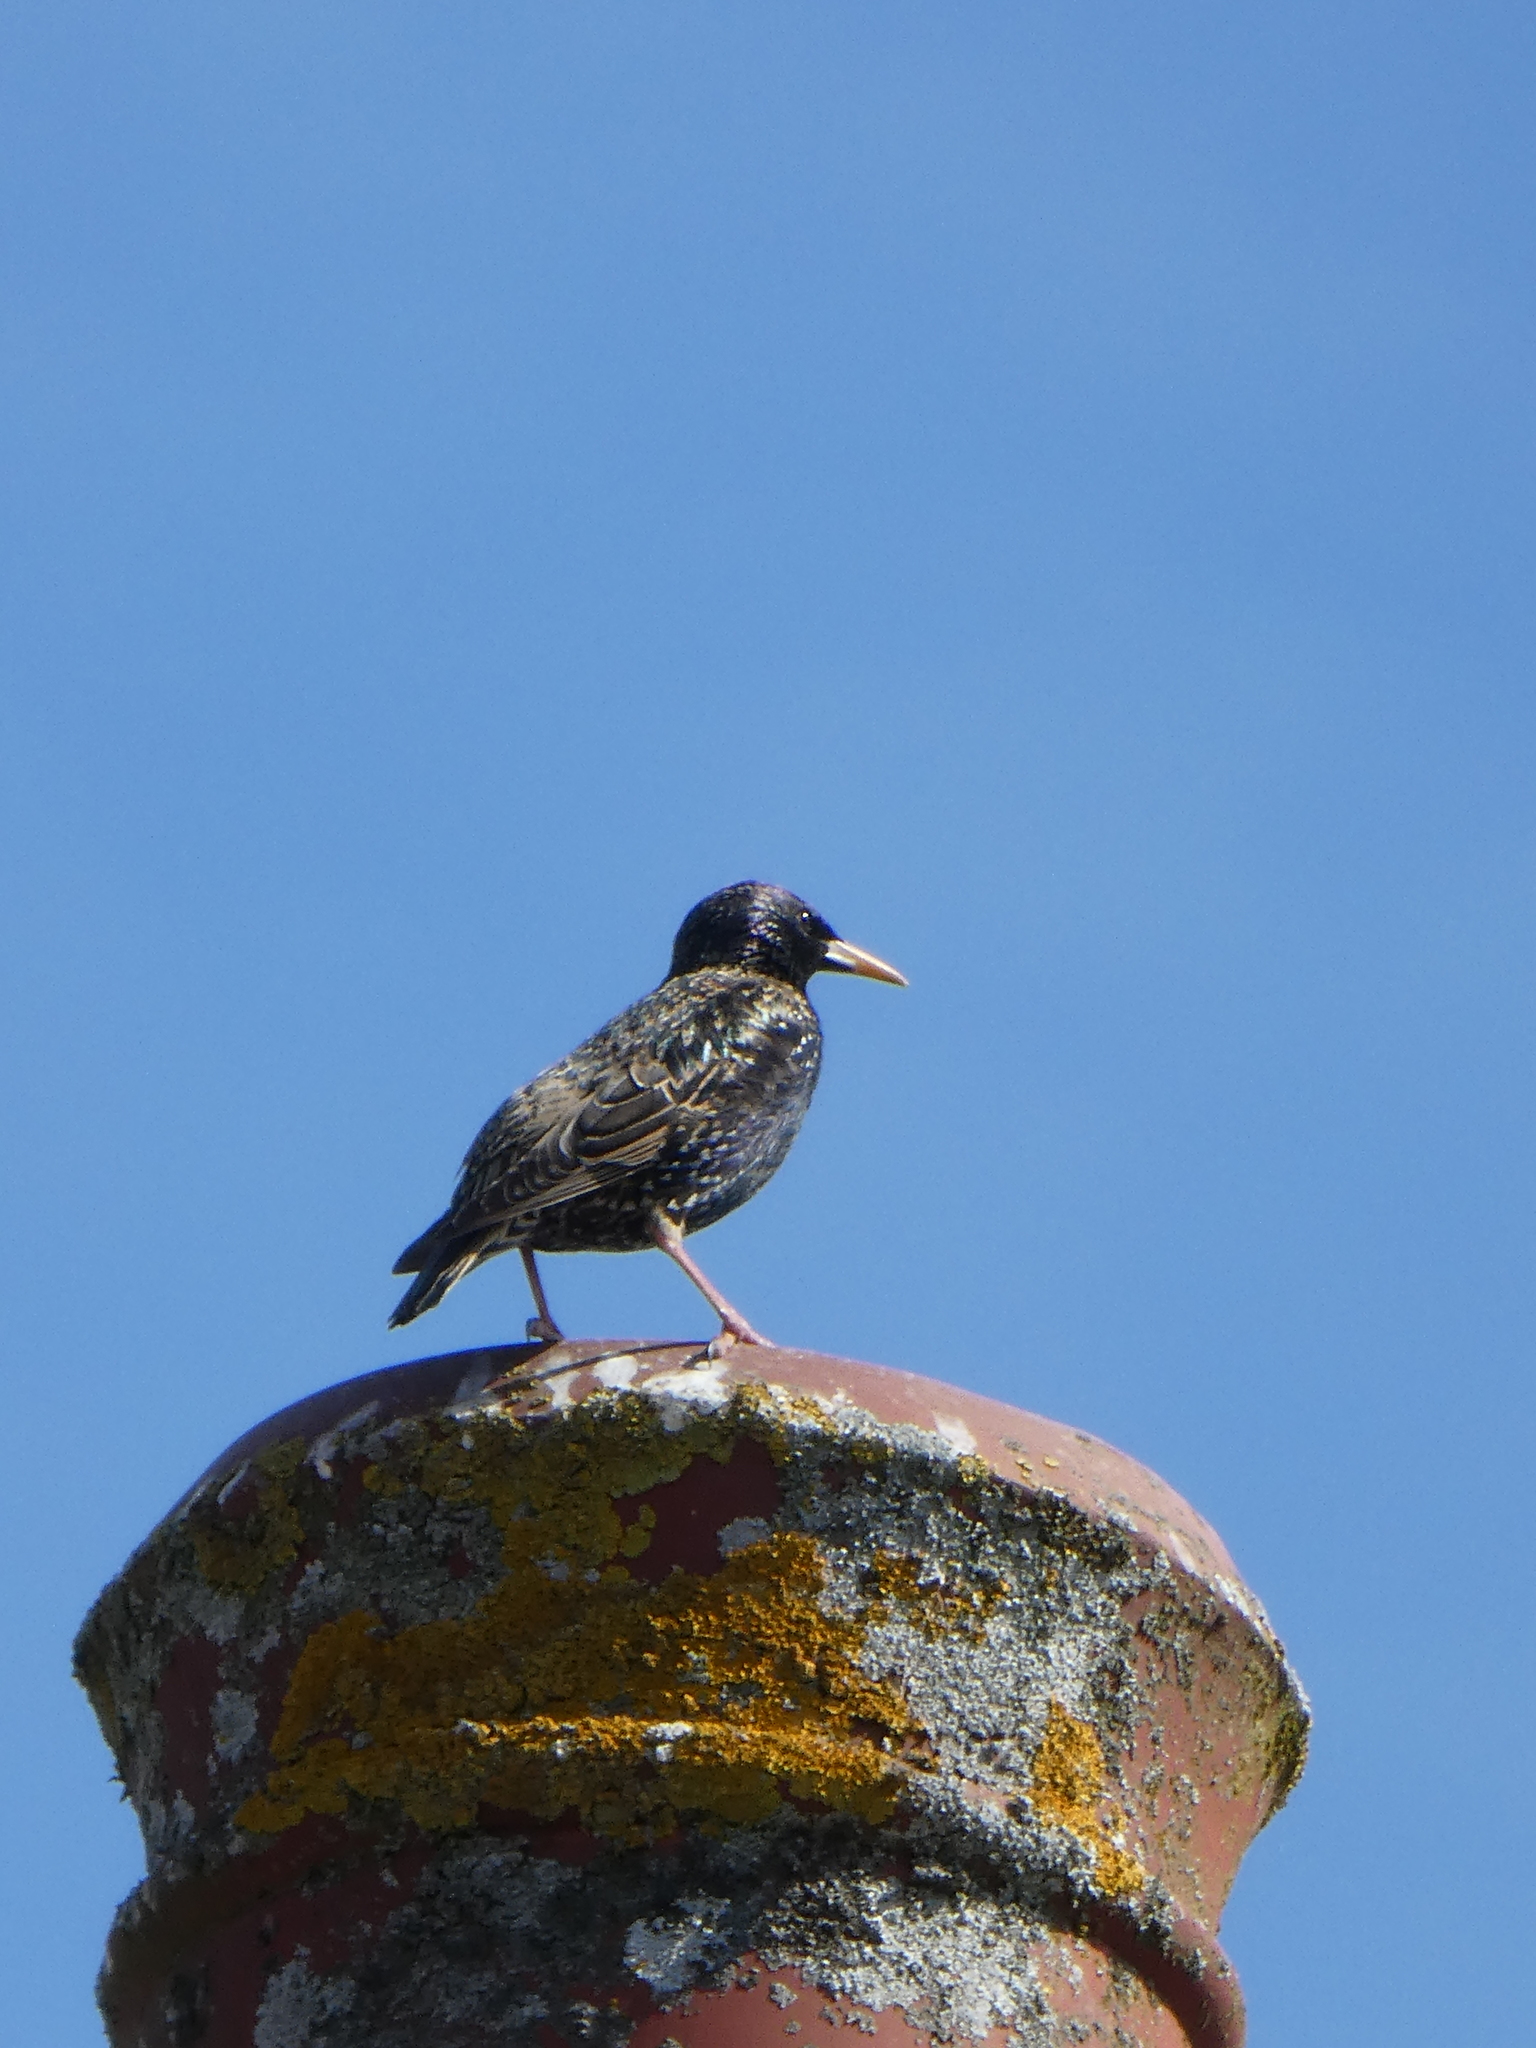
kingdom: Animalia
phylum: Chordata
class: Aves
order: Passeriformes
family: Sturnidae
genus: Sturnus
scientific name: Sturnus vulgaris
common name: Common starling
